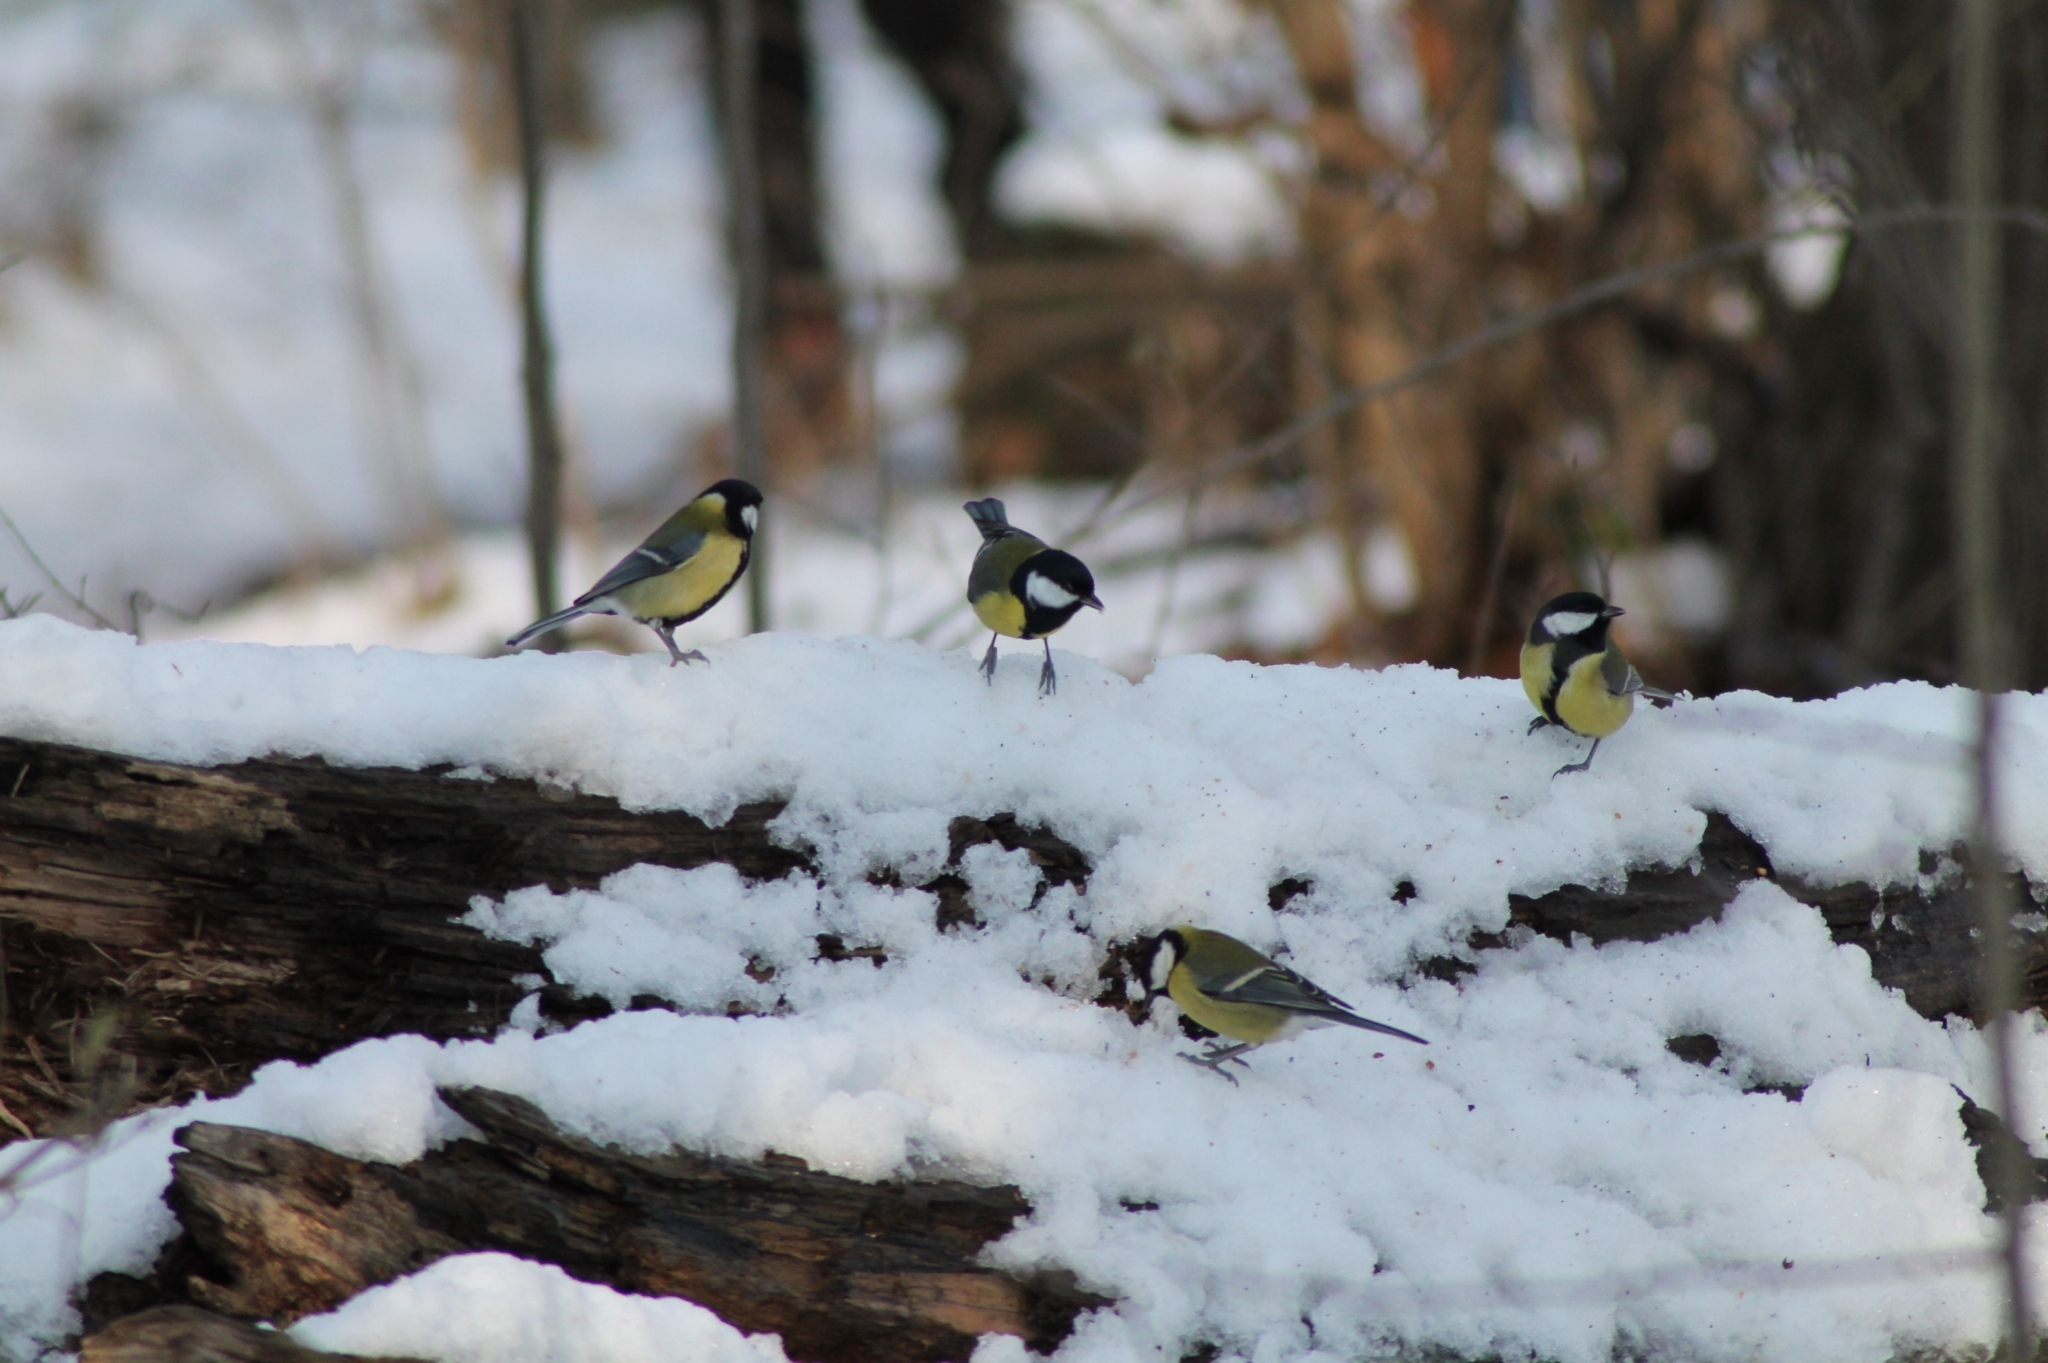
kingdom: Animalia
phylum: Chordata
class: Aves
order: Passeriformes
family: Paridae
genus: Parus
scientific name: Parus major
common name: Great tit
